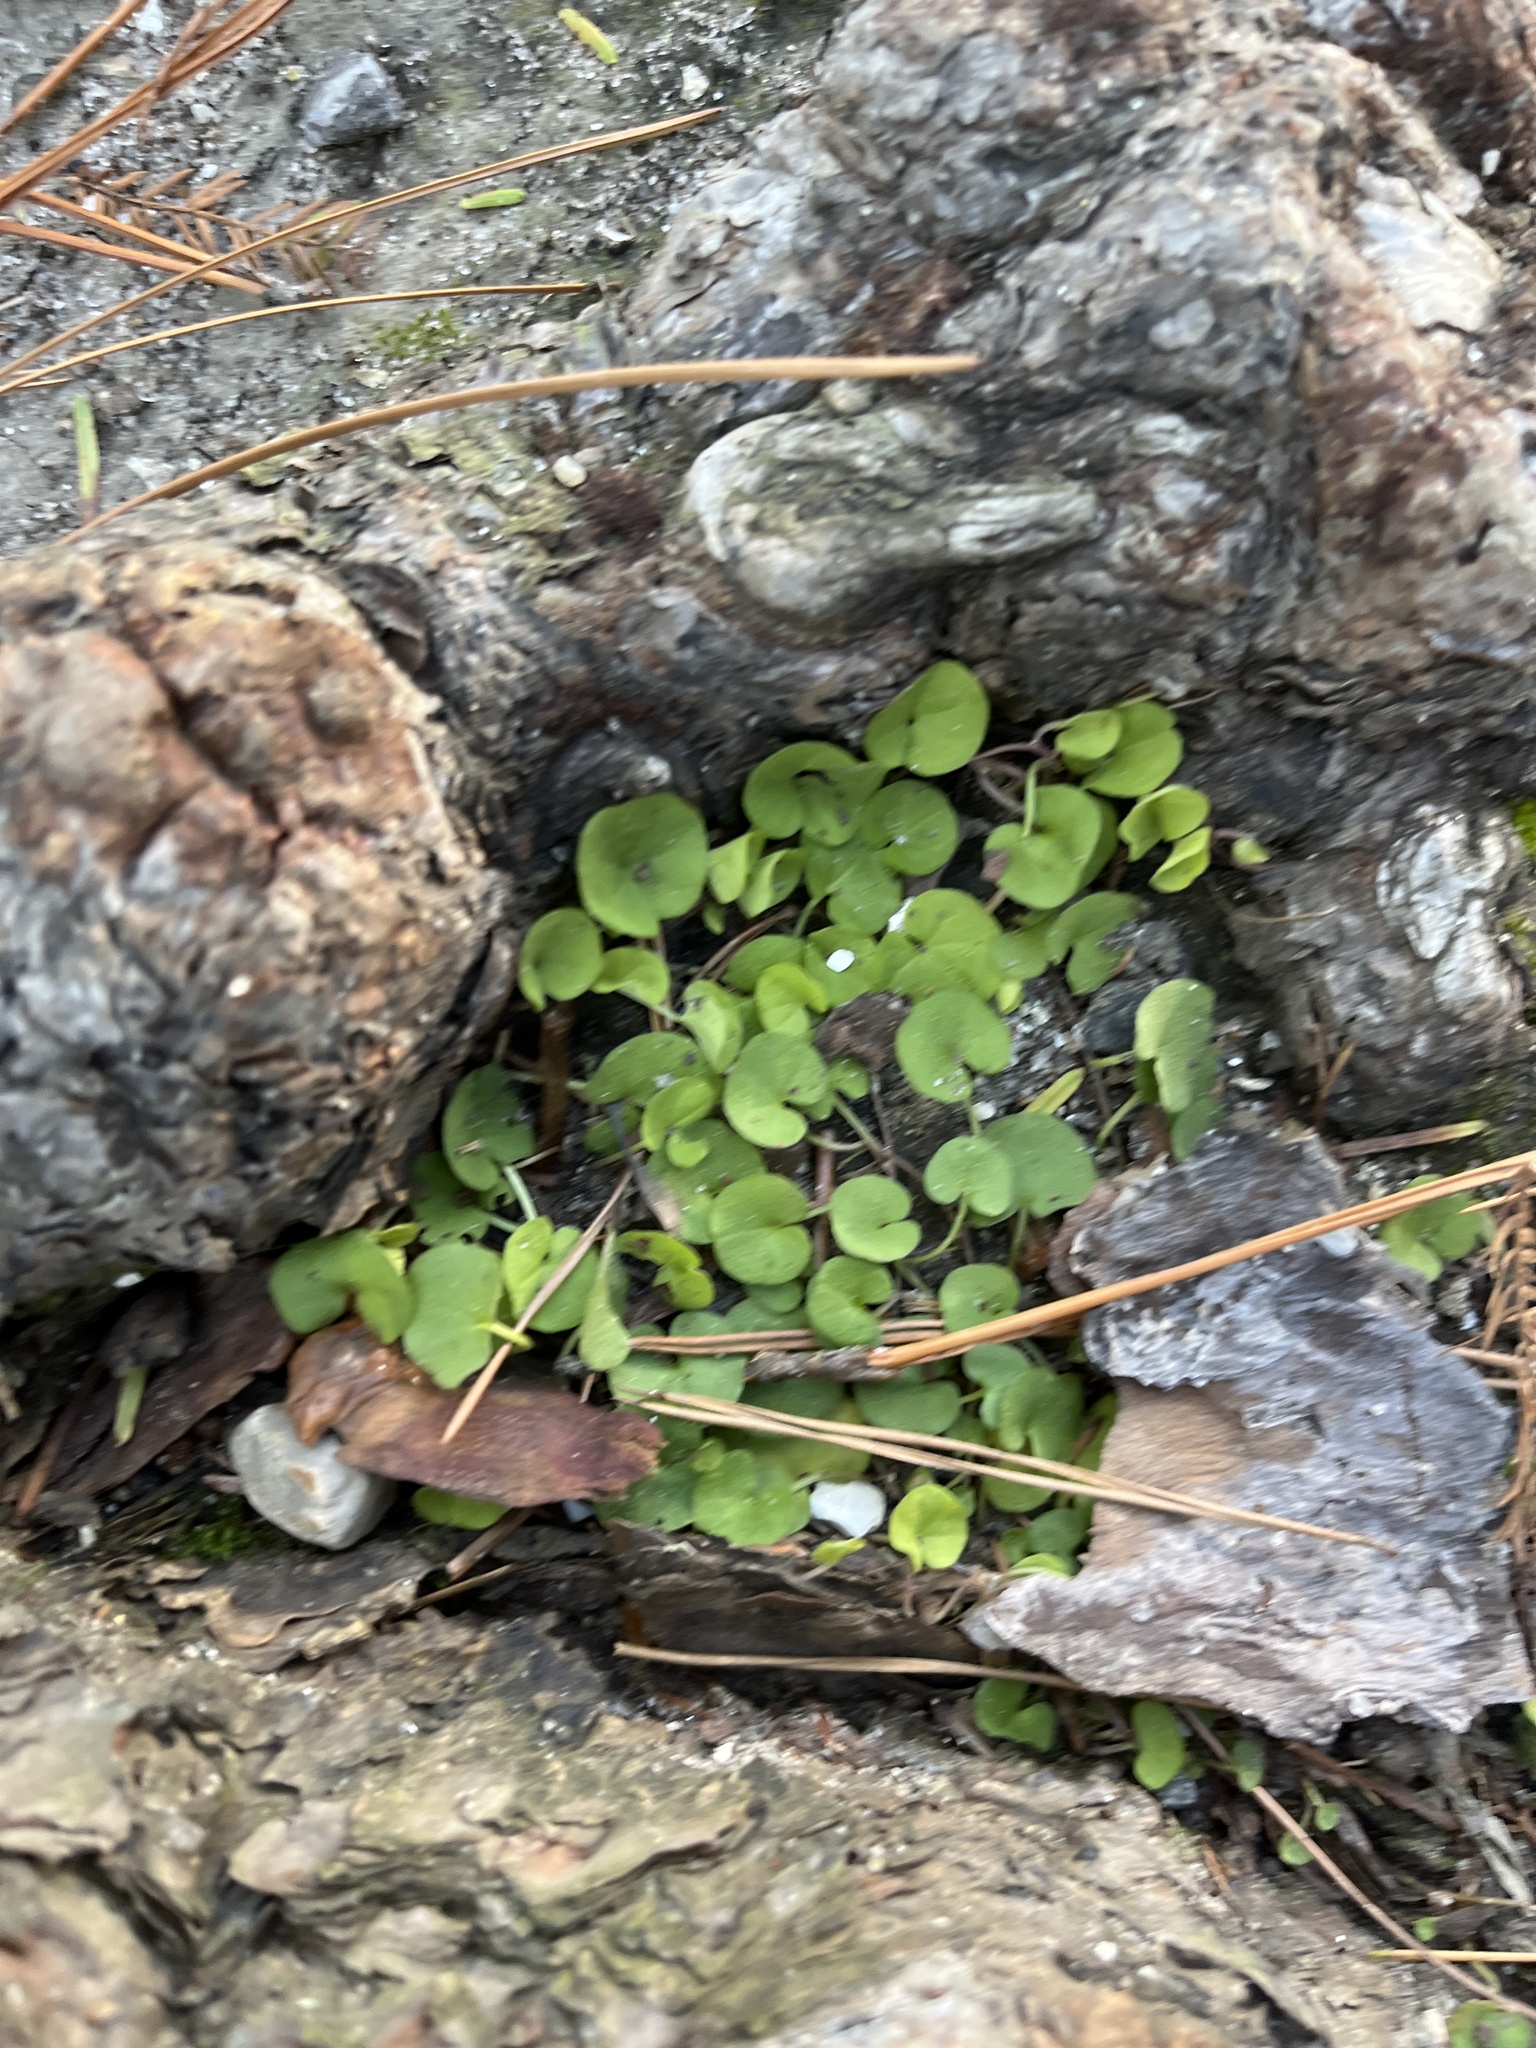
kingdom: Plantae
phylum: Tracheophyta
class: Magnoliopsida
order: Solanales
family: Convolvulaceae
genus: Dichondra
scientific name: Dichondra carolinensis
